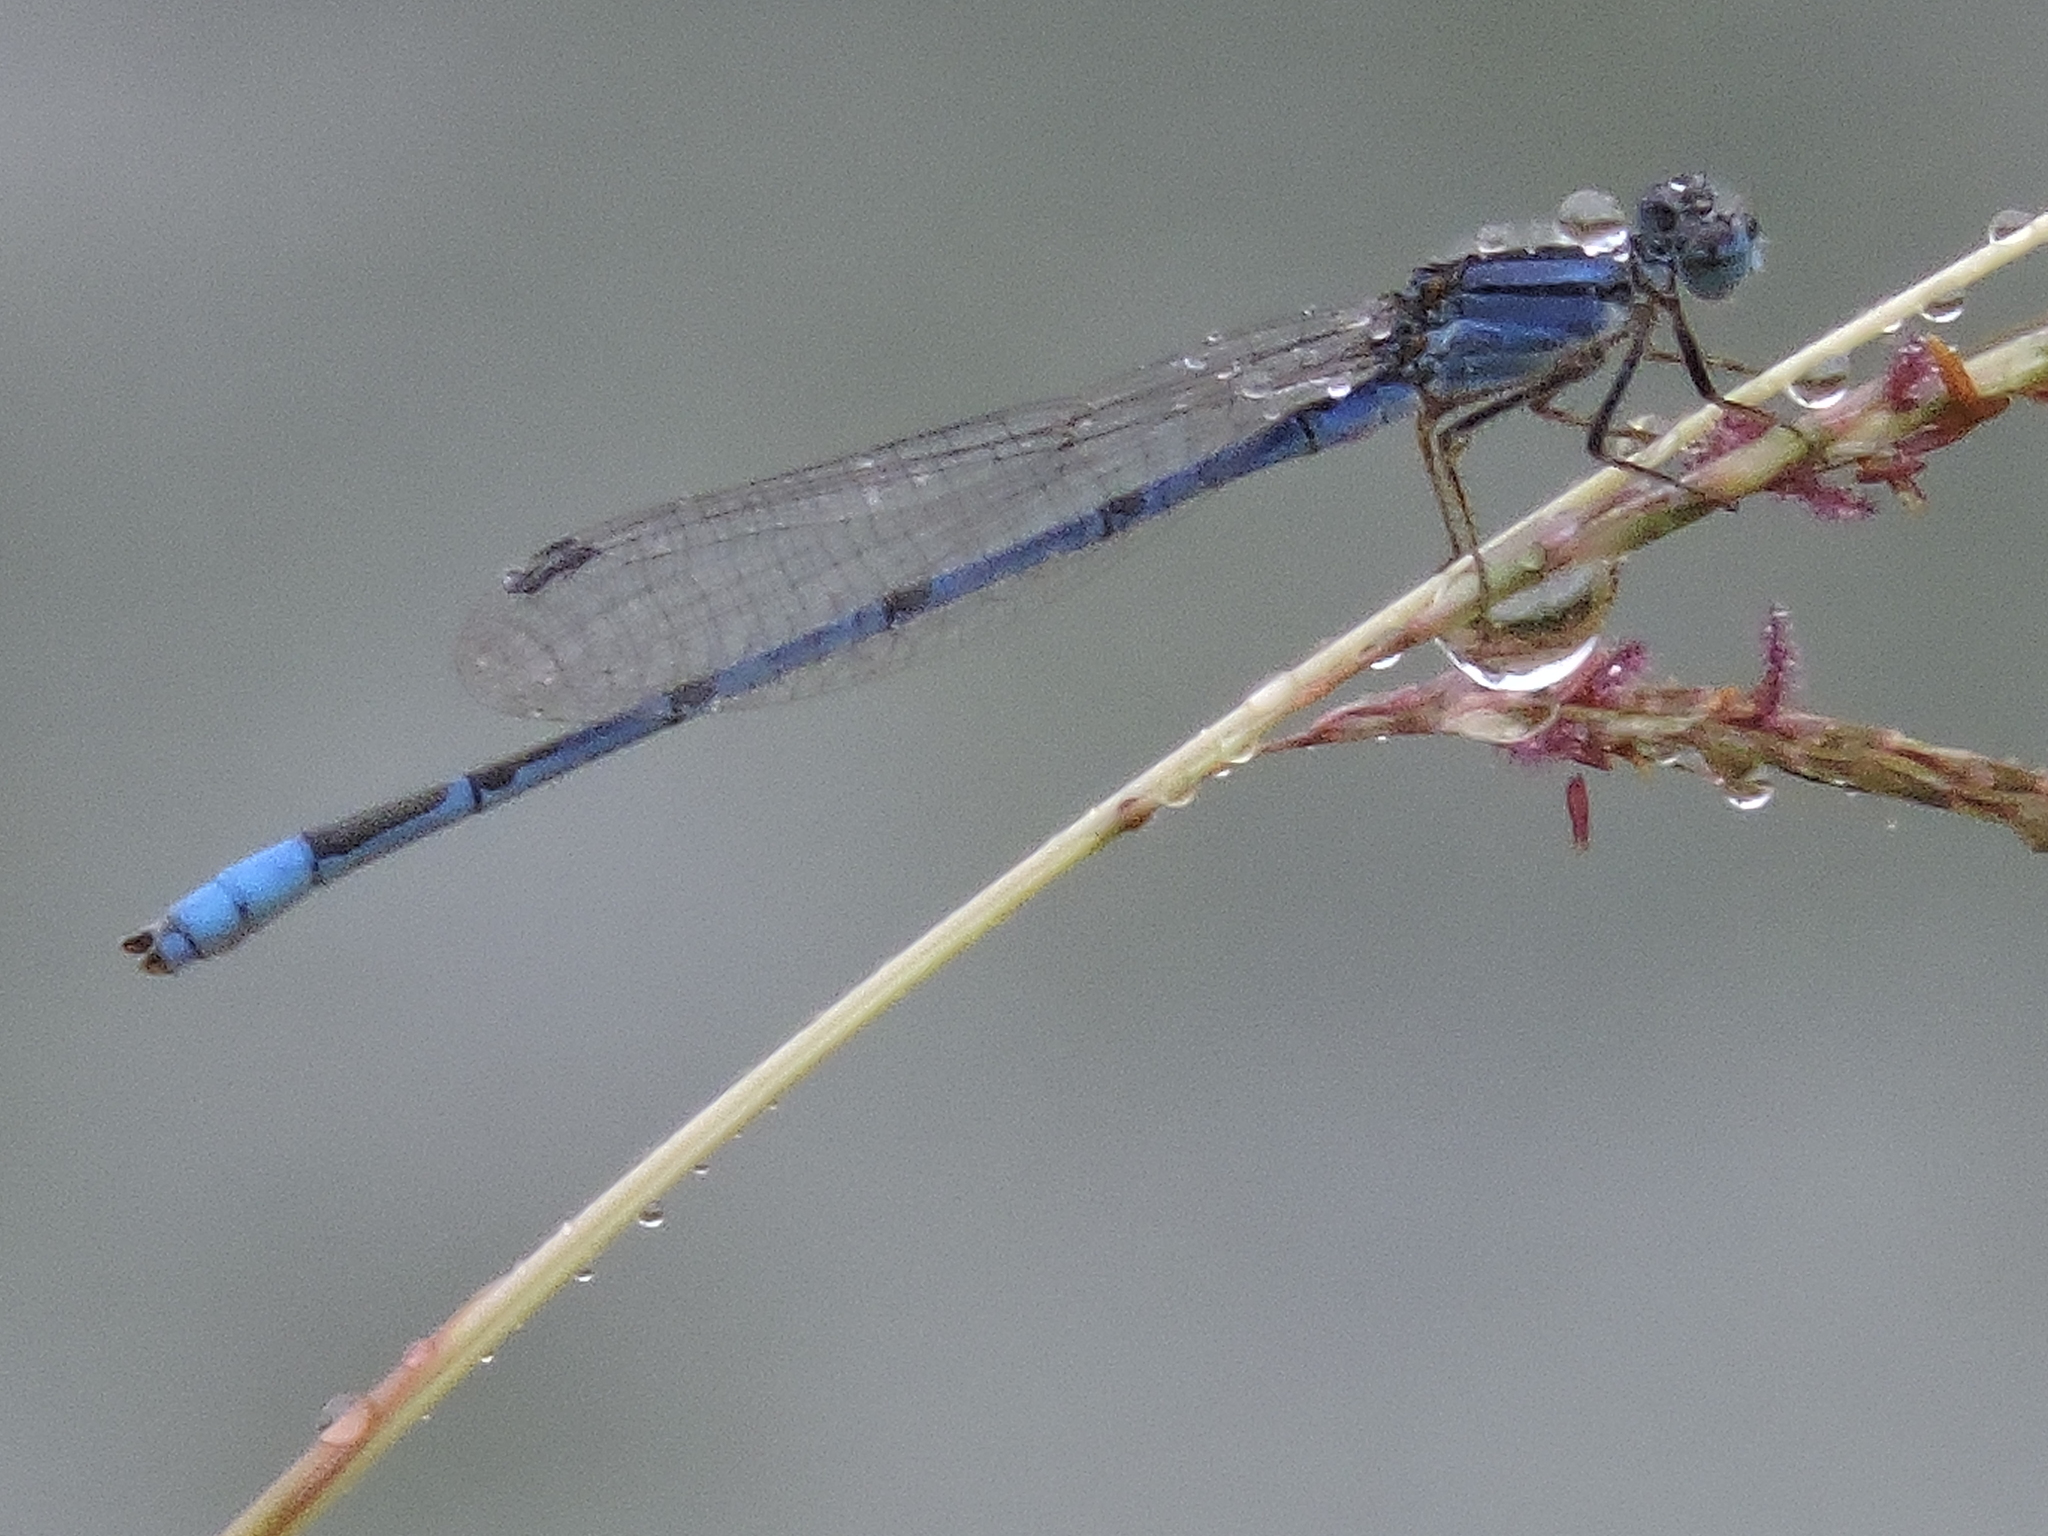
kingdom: Animalia
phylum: Arthropoda
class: Insecta
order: Odonata
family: Coenagrionidae
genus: Enallagma
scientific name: Enallagma civile
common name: Damselfly
